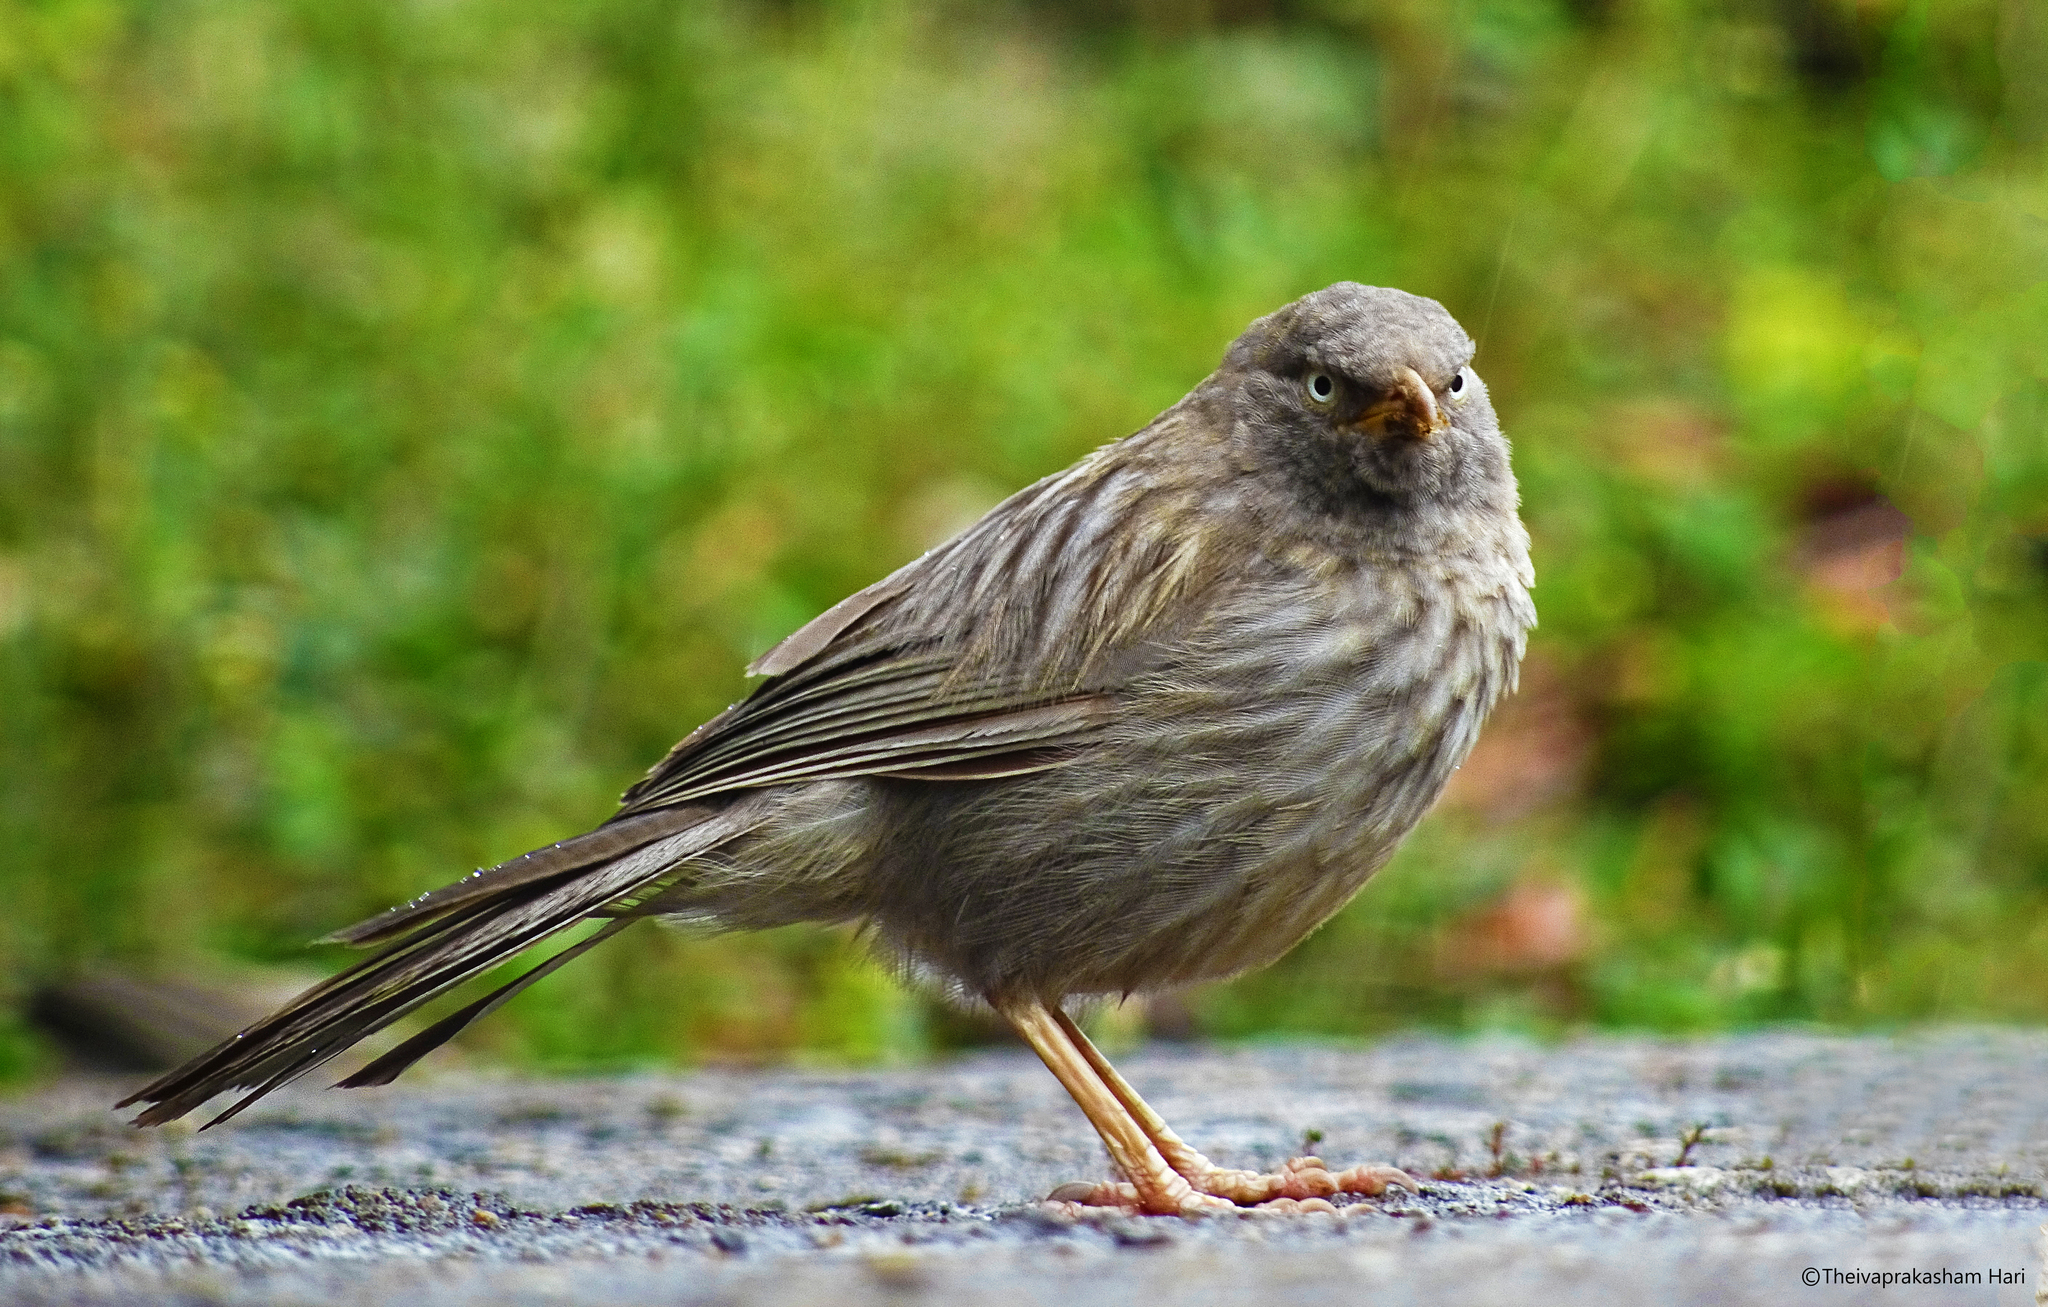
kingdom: Animalia
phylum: Chordata
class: Aves
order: Passeriformes
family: Leiothrichidae
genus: Turdoides
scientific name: Turdoides striata
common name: Jungle babbler
